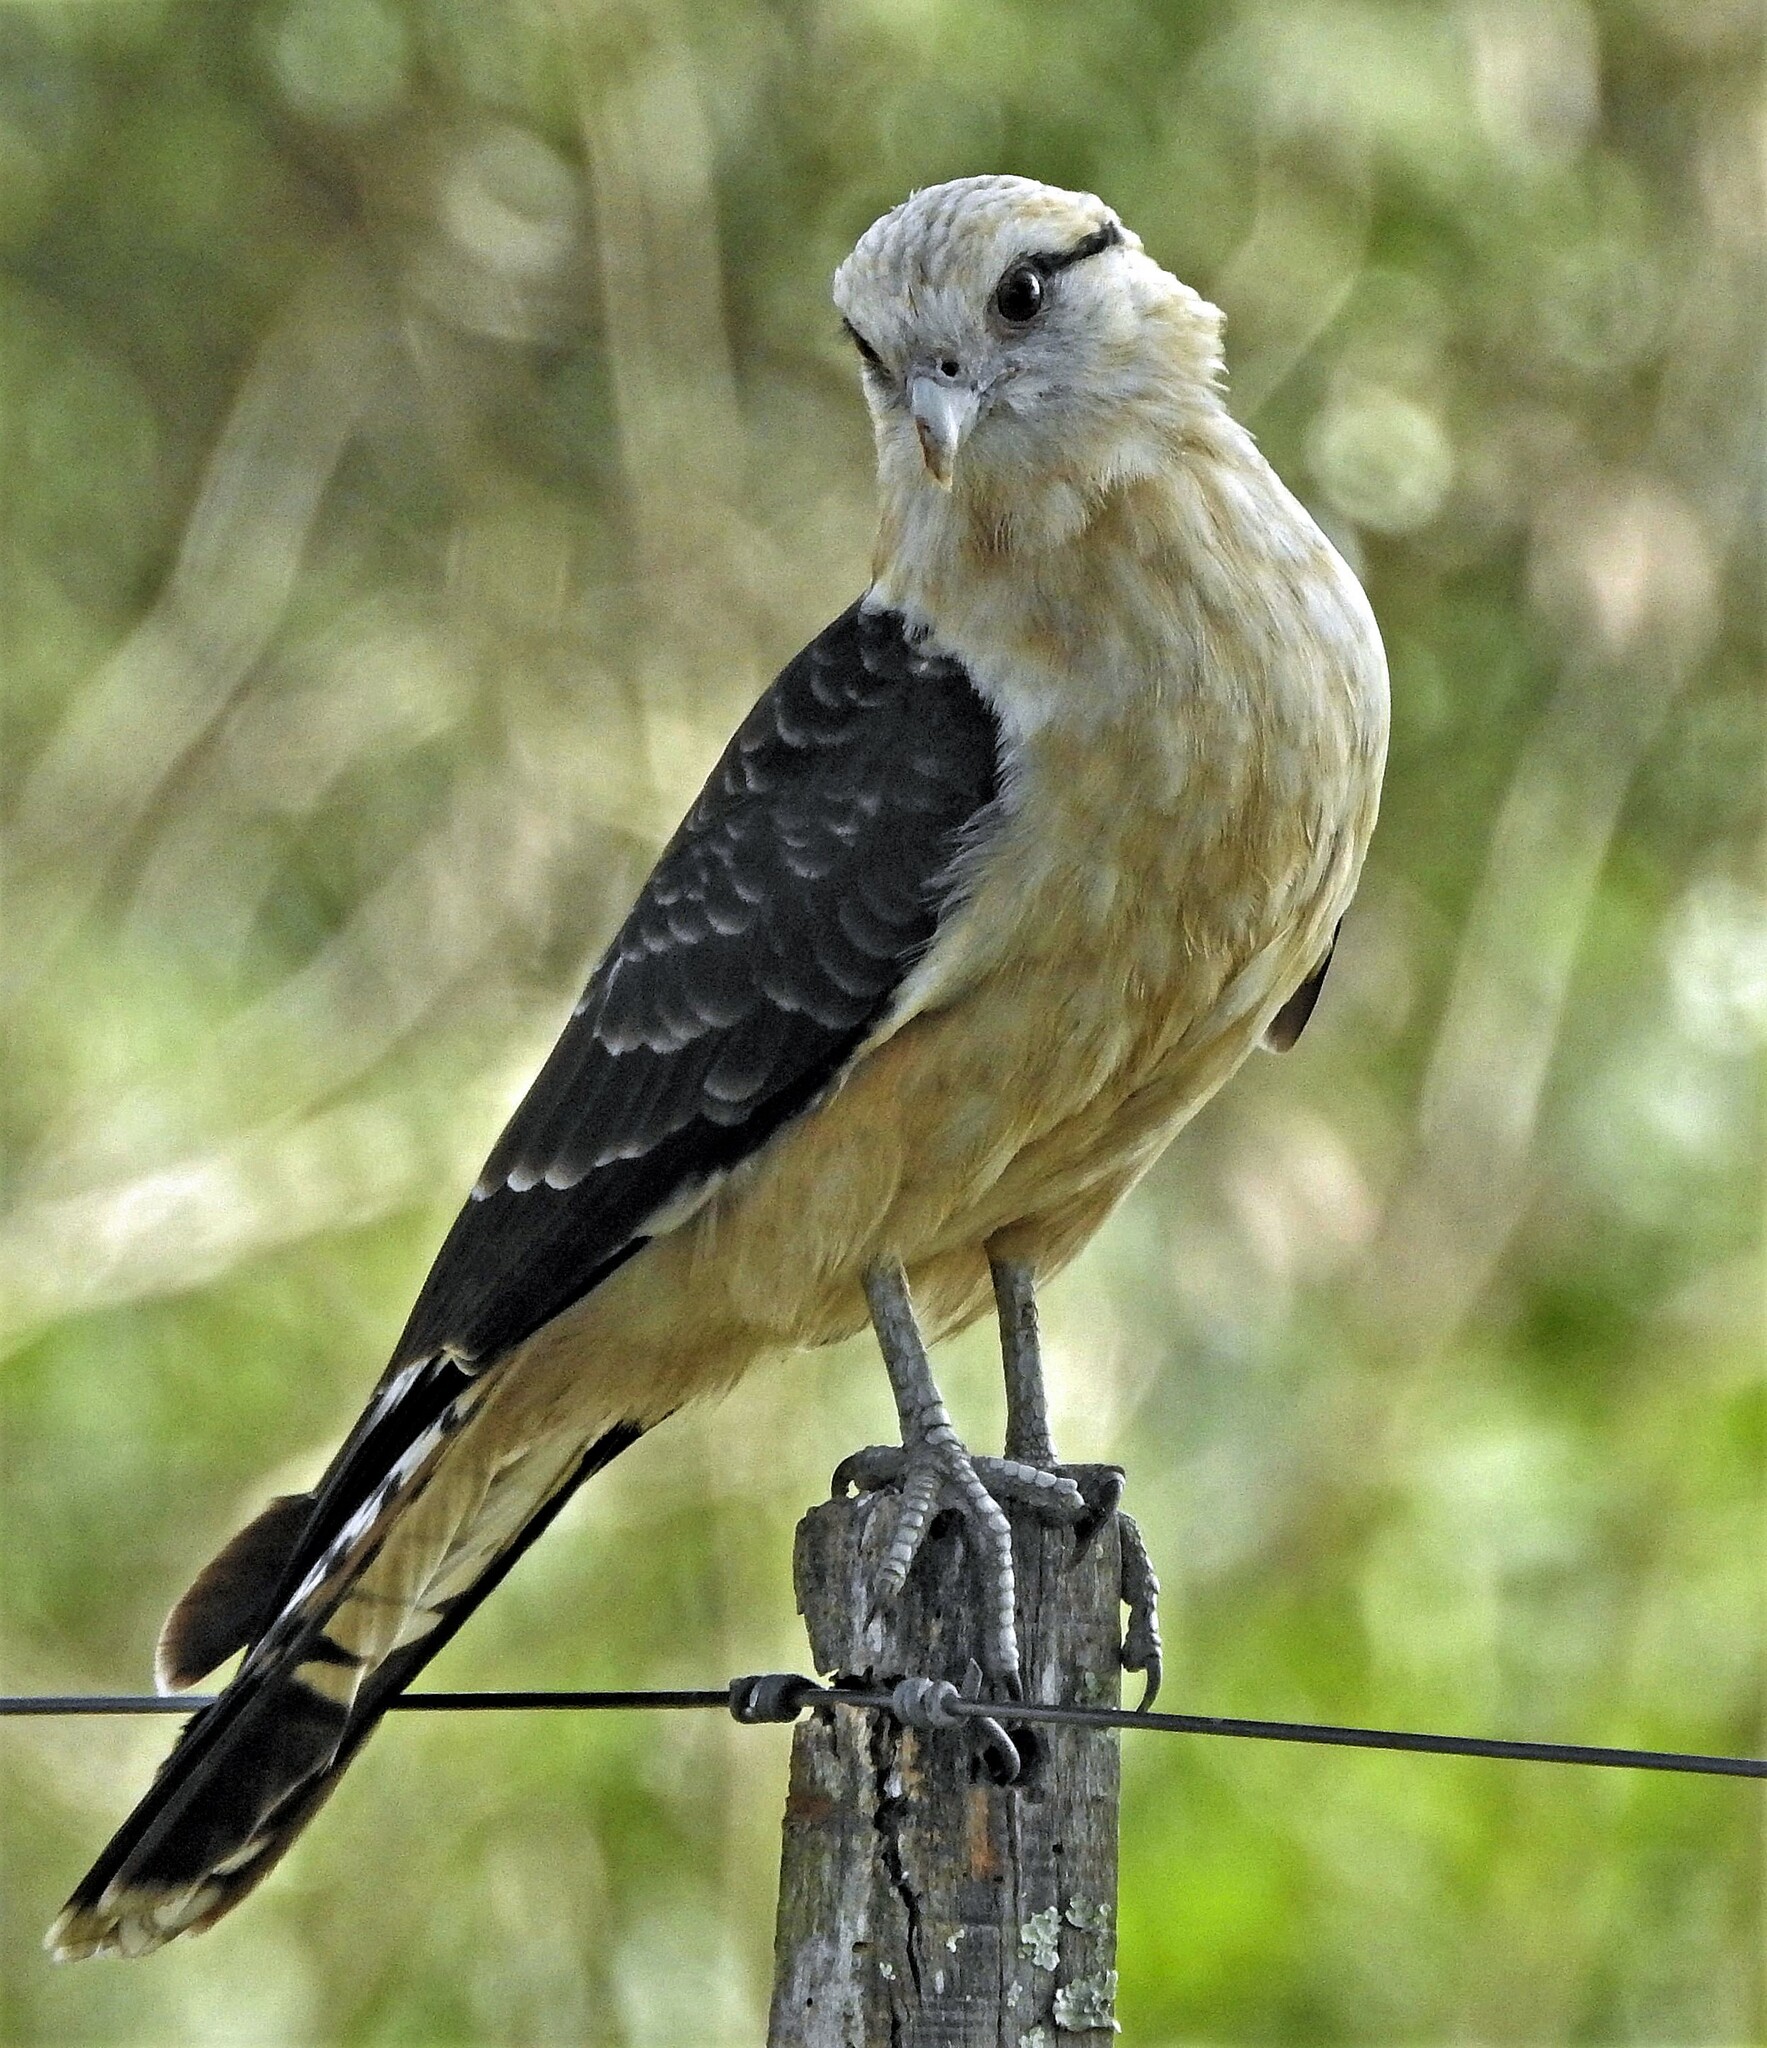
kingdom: Animalia
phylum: Chordata
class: Aves
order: Falconiformes
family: Falconidae
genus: Daptrius
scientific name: Daptrius
